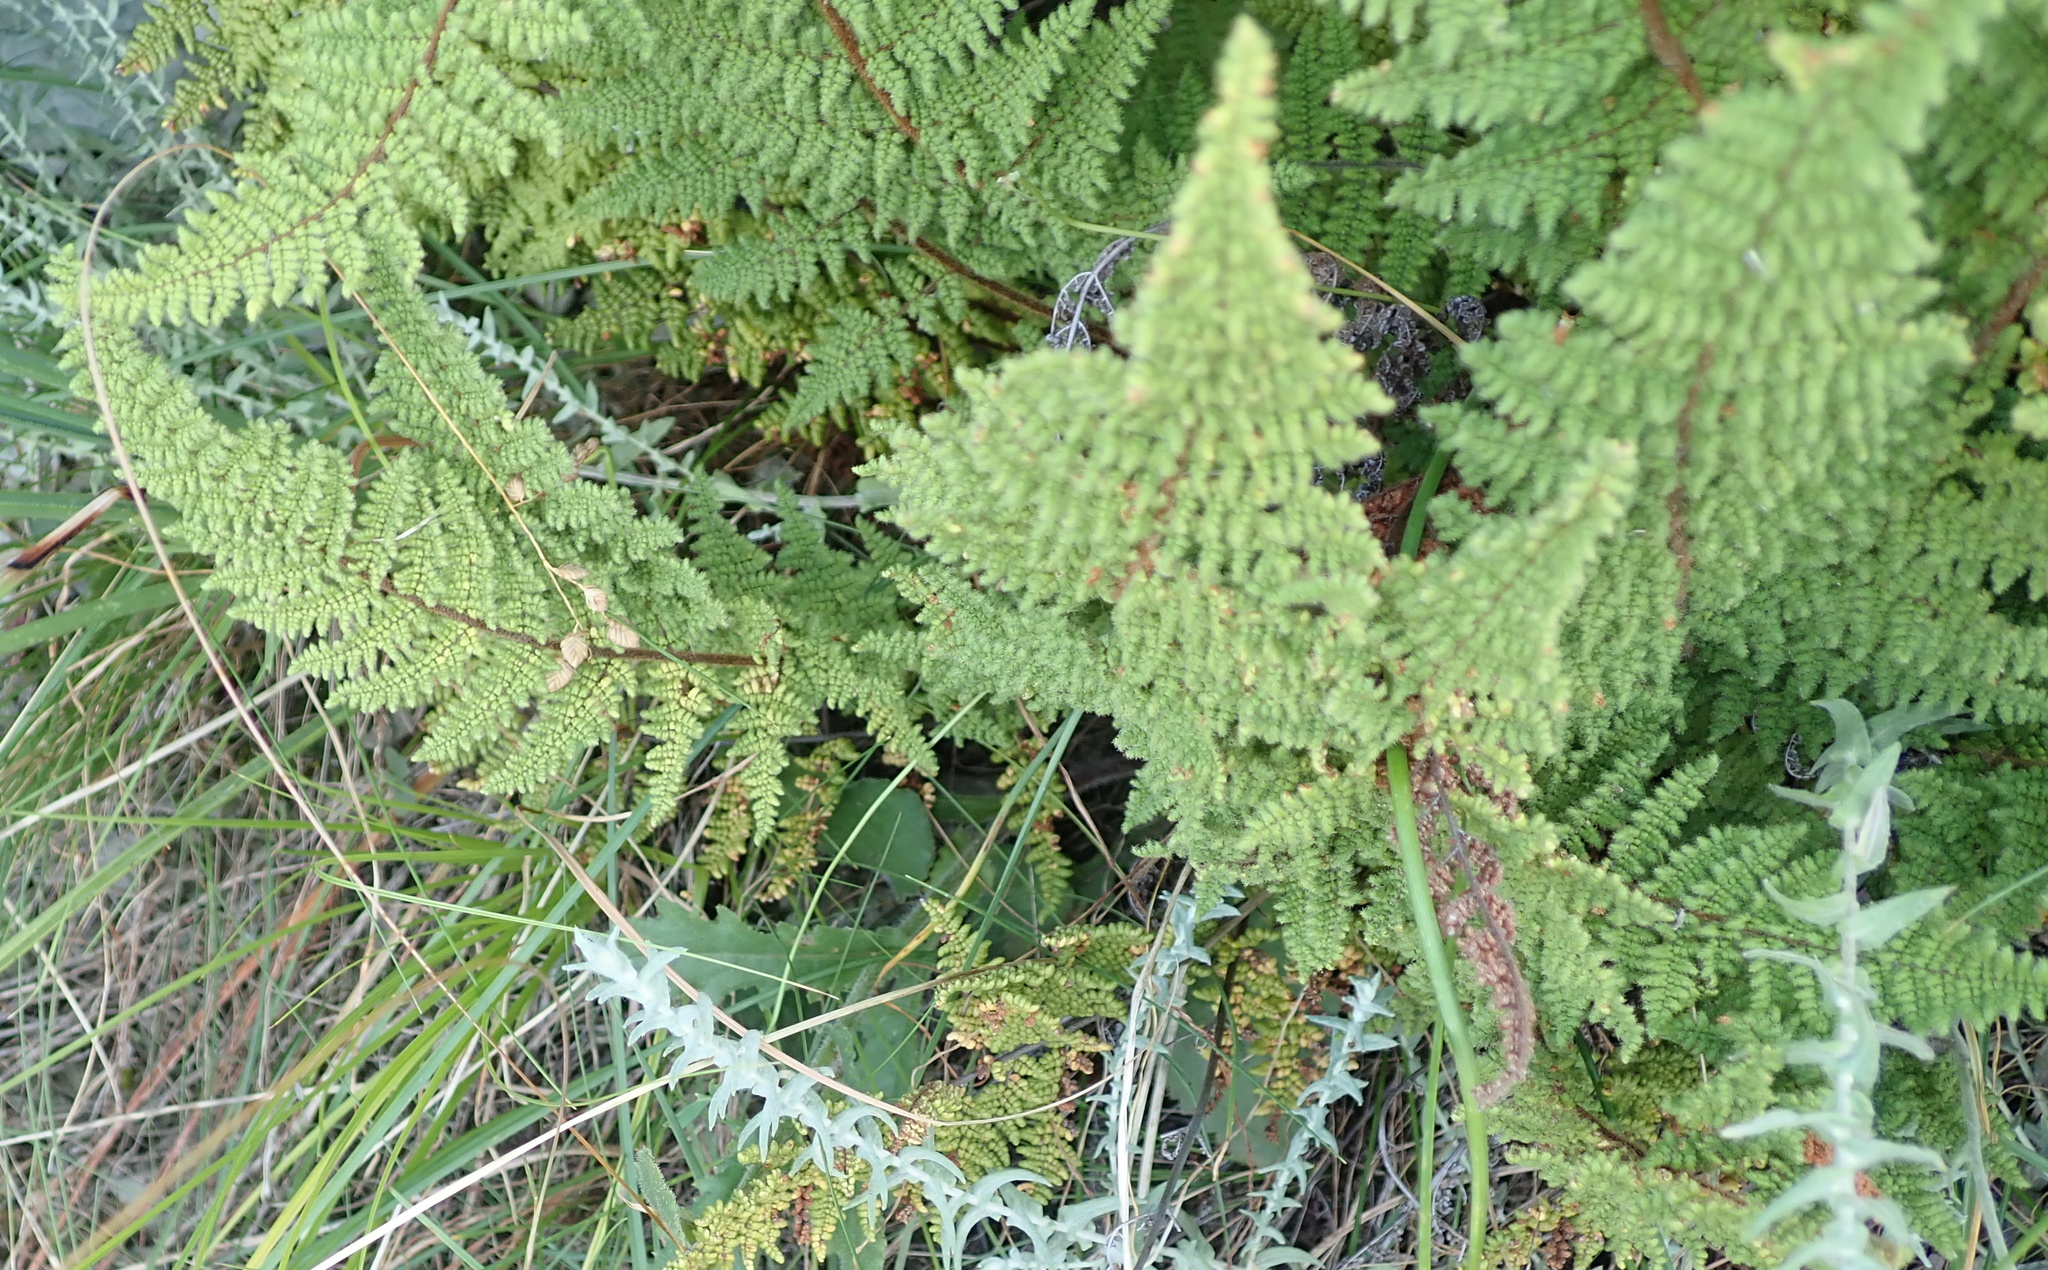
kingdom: Plantae
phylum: Tracheophyta
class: Polypodiopsida
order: Polypodiales
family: Pteridaceae
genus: Cheilanthes
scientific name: Cheilanthes hirta
